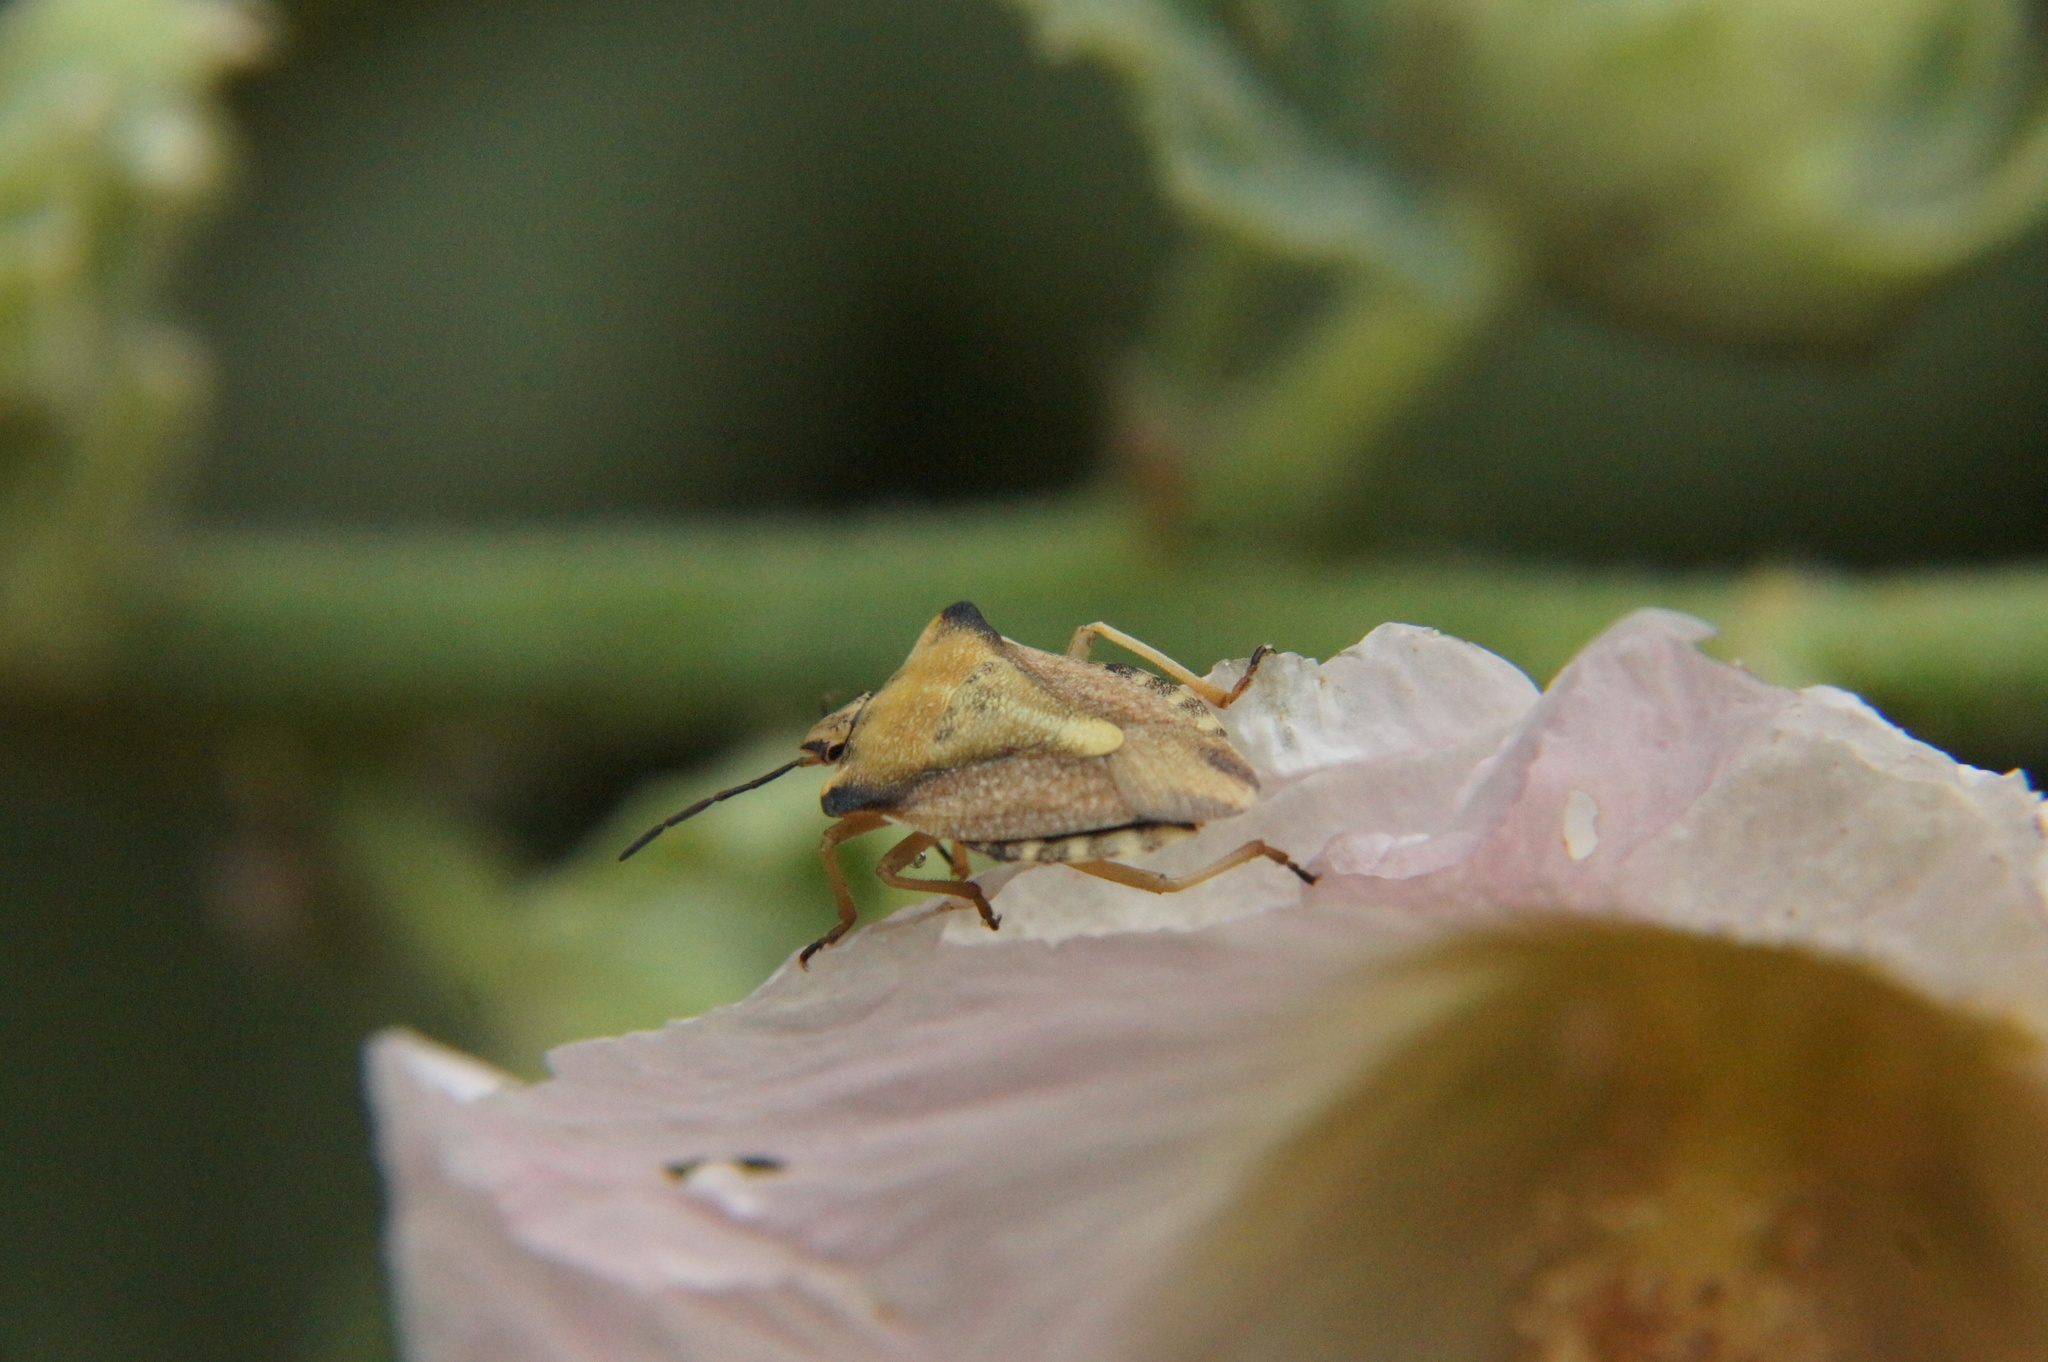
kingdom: Animalia
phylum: Arthropoda
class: Insecta
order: Hemiptera
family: Pentatomidae
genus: Carpocoris
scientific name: Carpocoris fuscispinus
